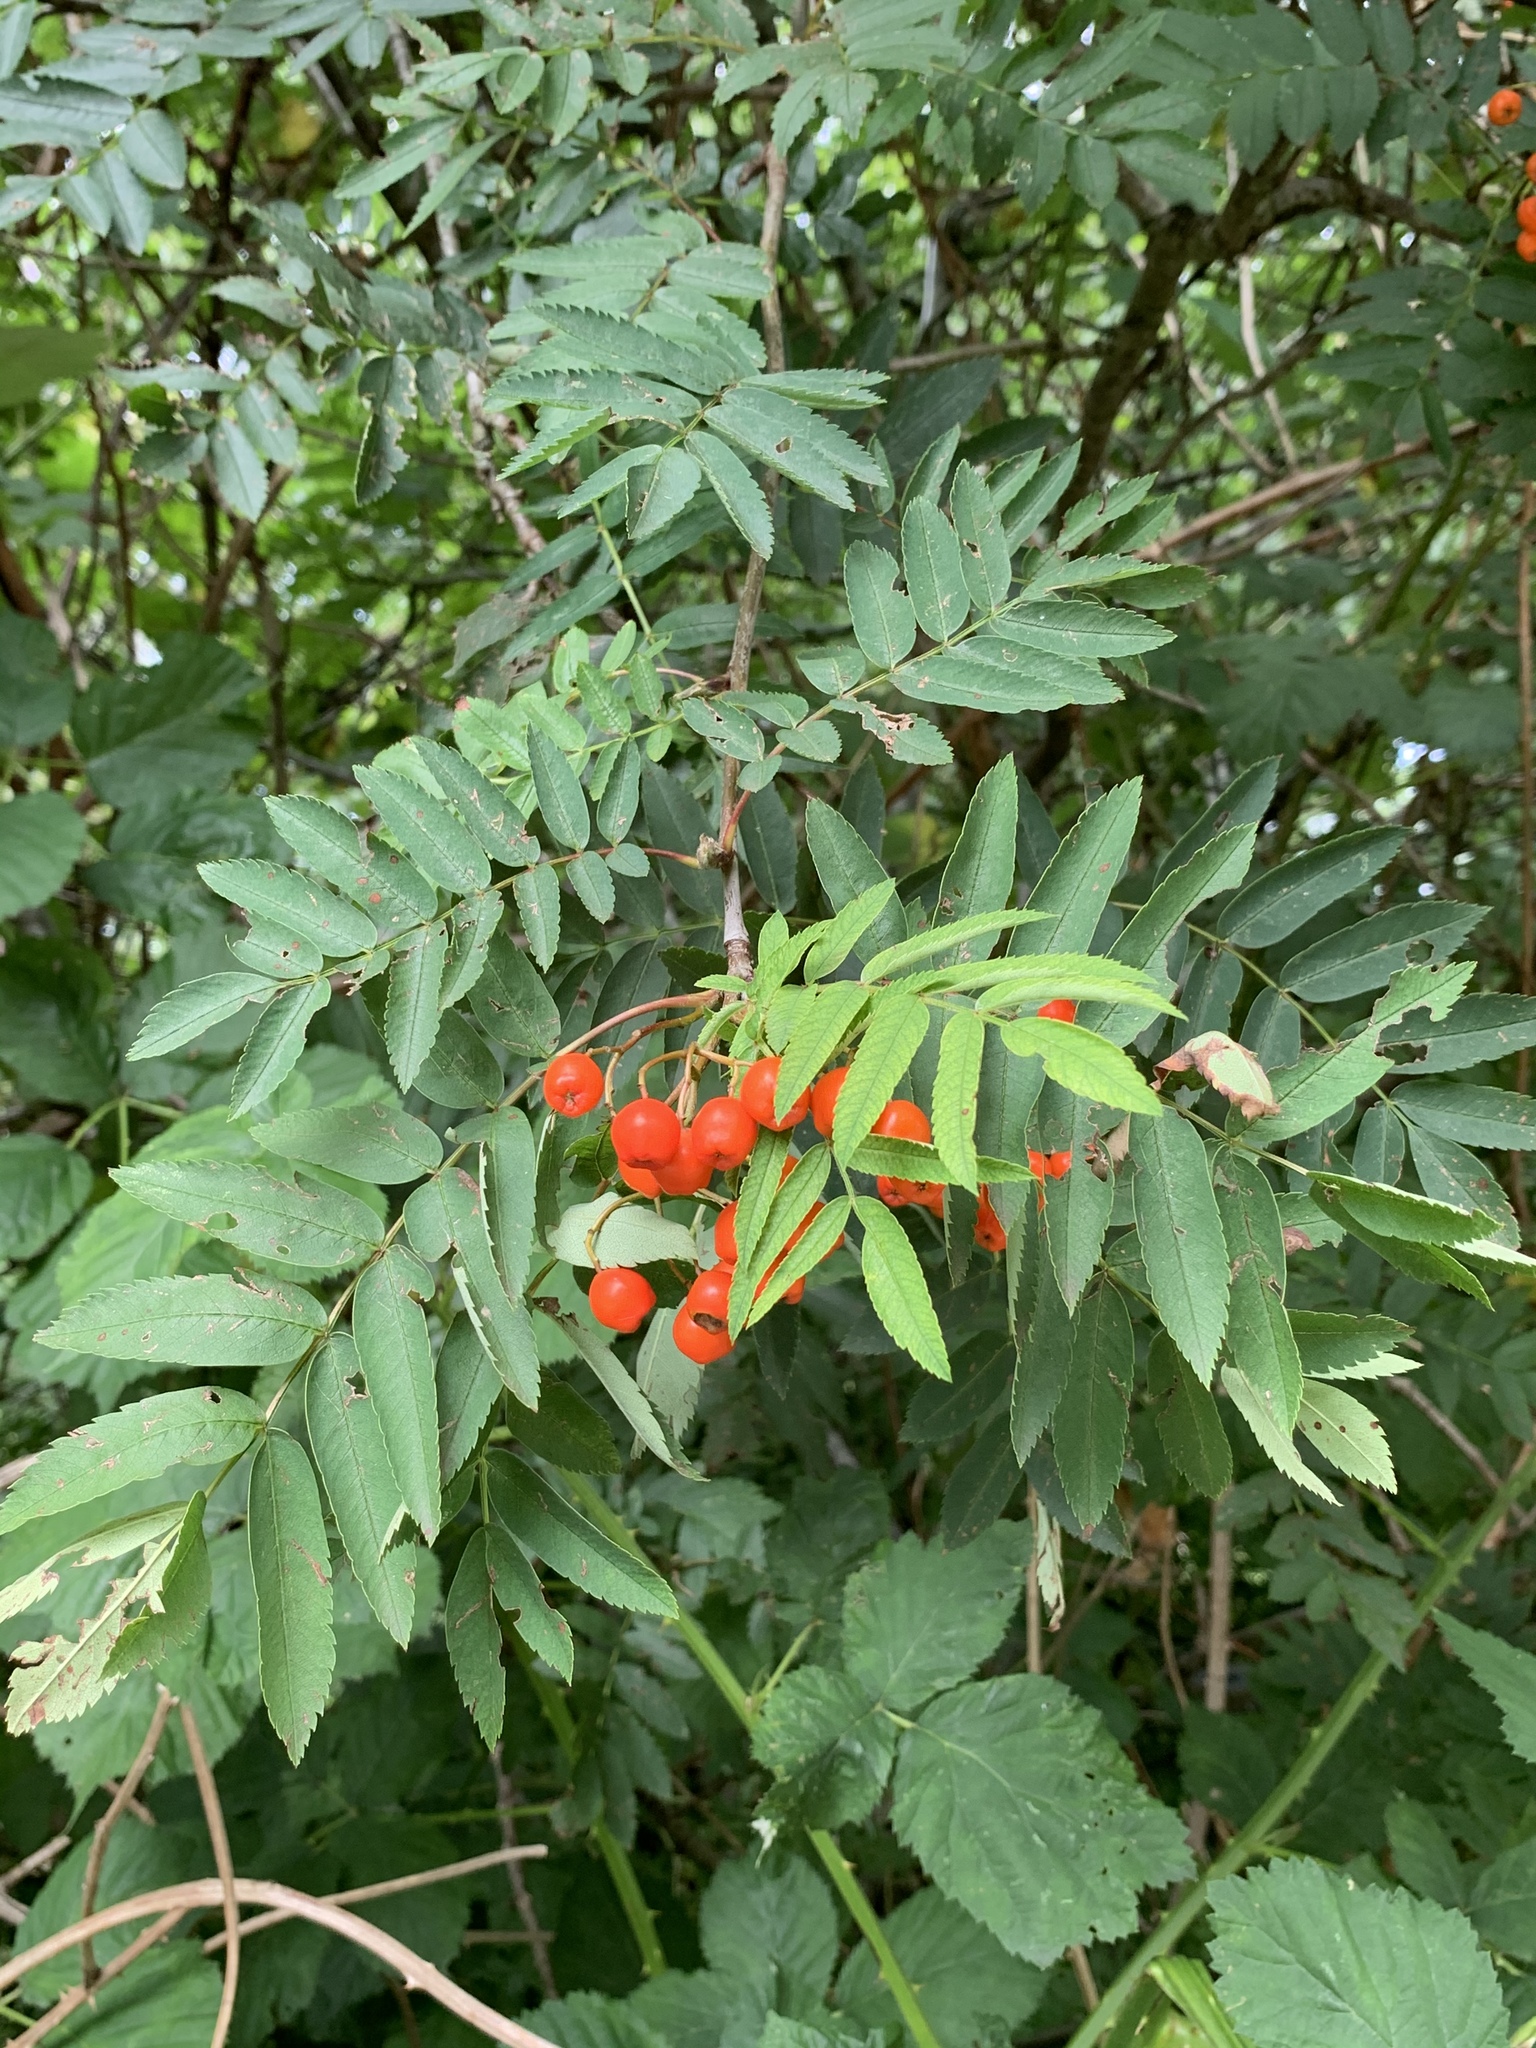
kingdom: Plantae
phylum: Tracheophyta
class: Magnoliopsida
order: Rosales
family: Rosaceae
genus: Sorbus
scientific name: Sorbus aucuparia
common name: Rowan
